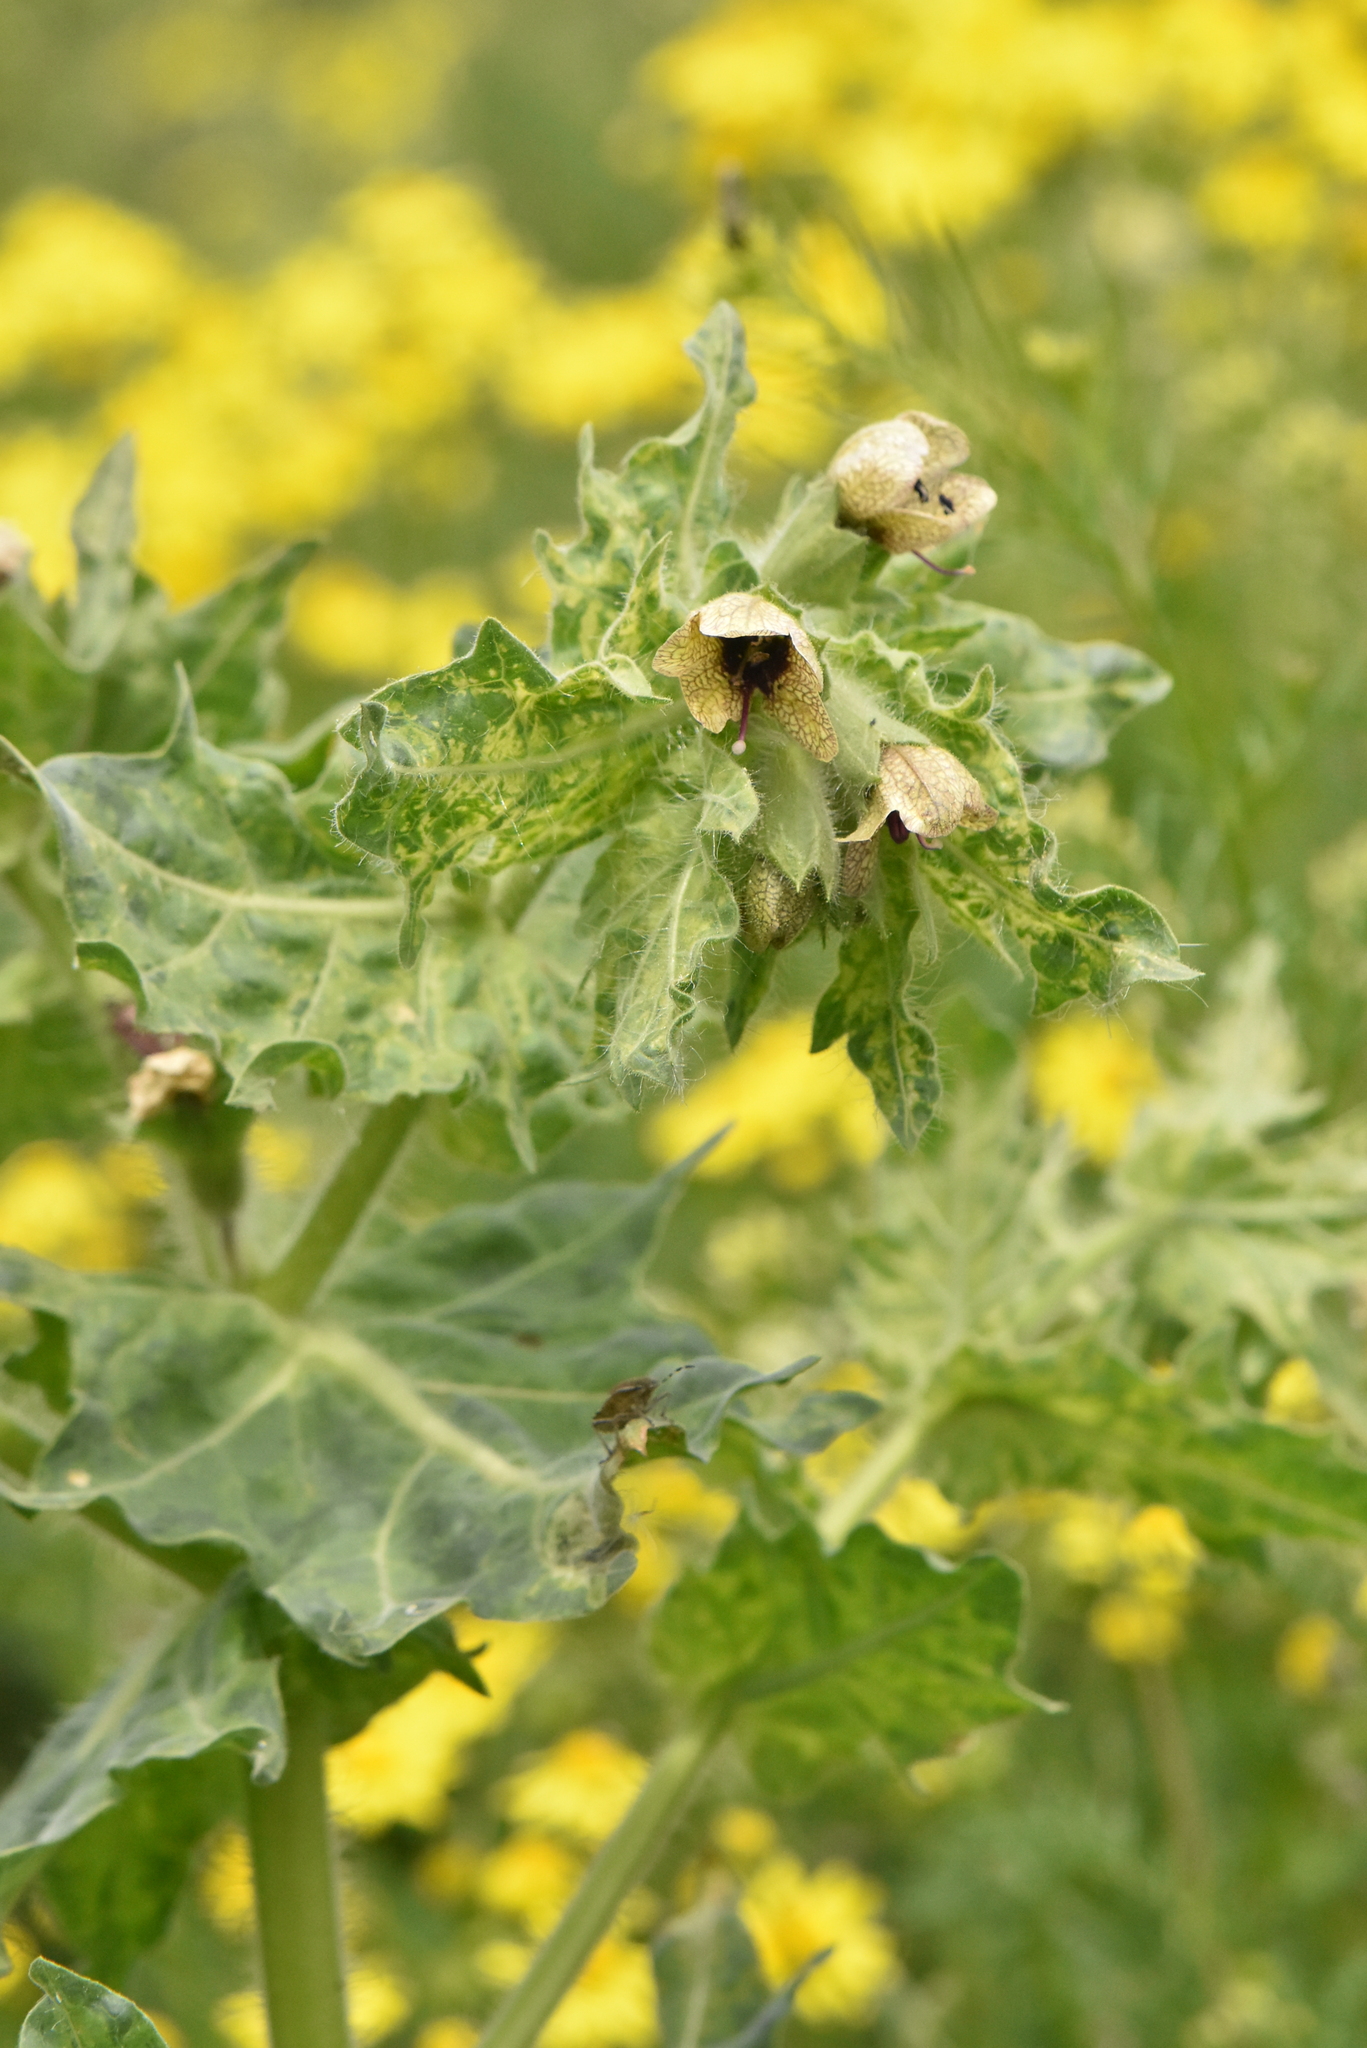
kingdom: Plantae
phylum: Tracheophyta
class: Magnoliopsida
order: Solanales
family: Solanaceae
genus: Hyoscyamus
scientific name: Hyoscyamus niger
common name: Henbane
